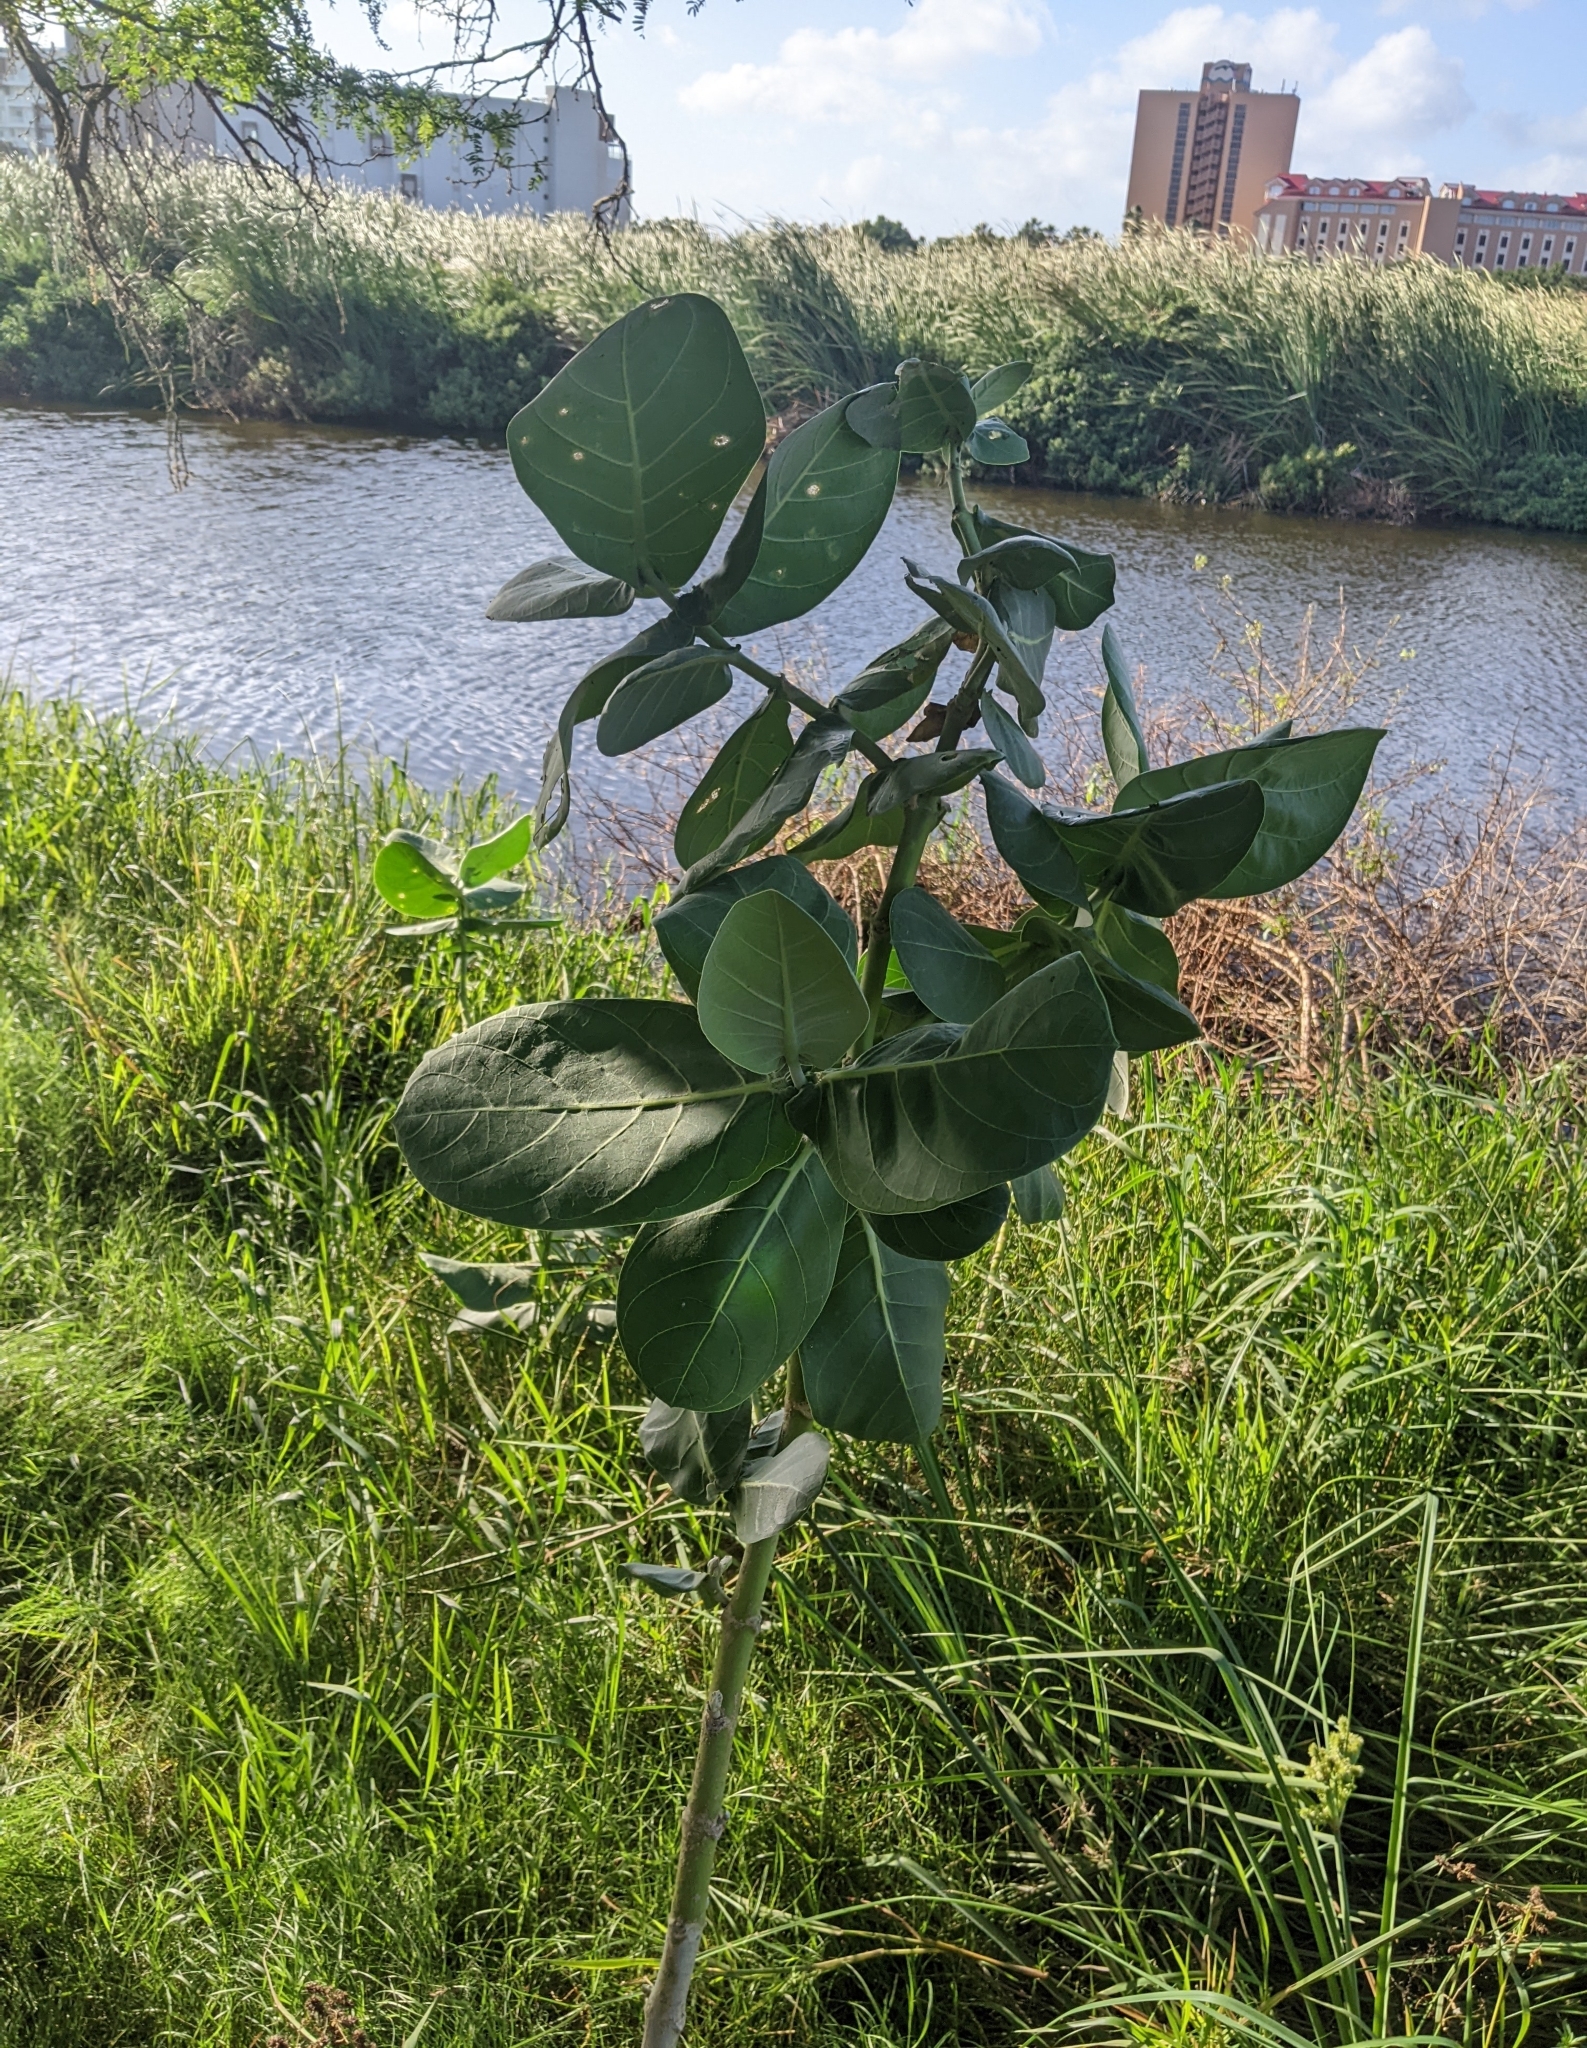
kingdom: Plantae
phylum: Tracheophyta
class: Magnoliopsida
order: Gentianales
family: Apocynaceae
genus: Calotropis
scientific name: Calotropis procera
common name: Roostertree
